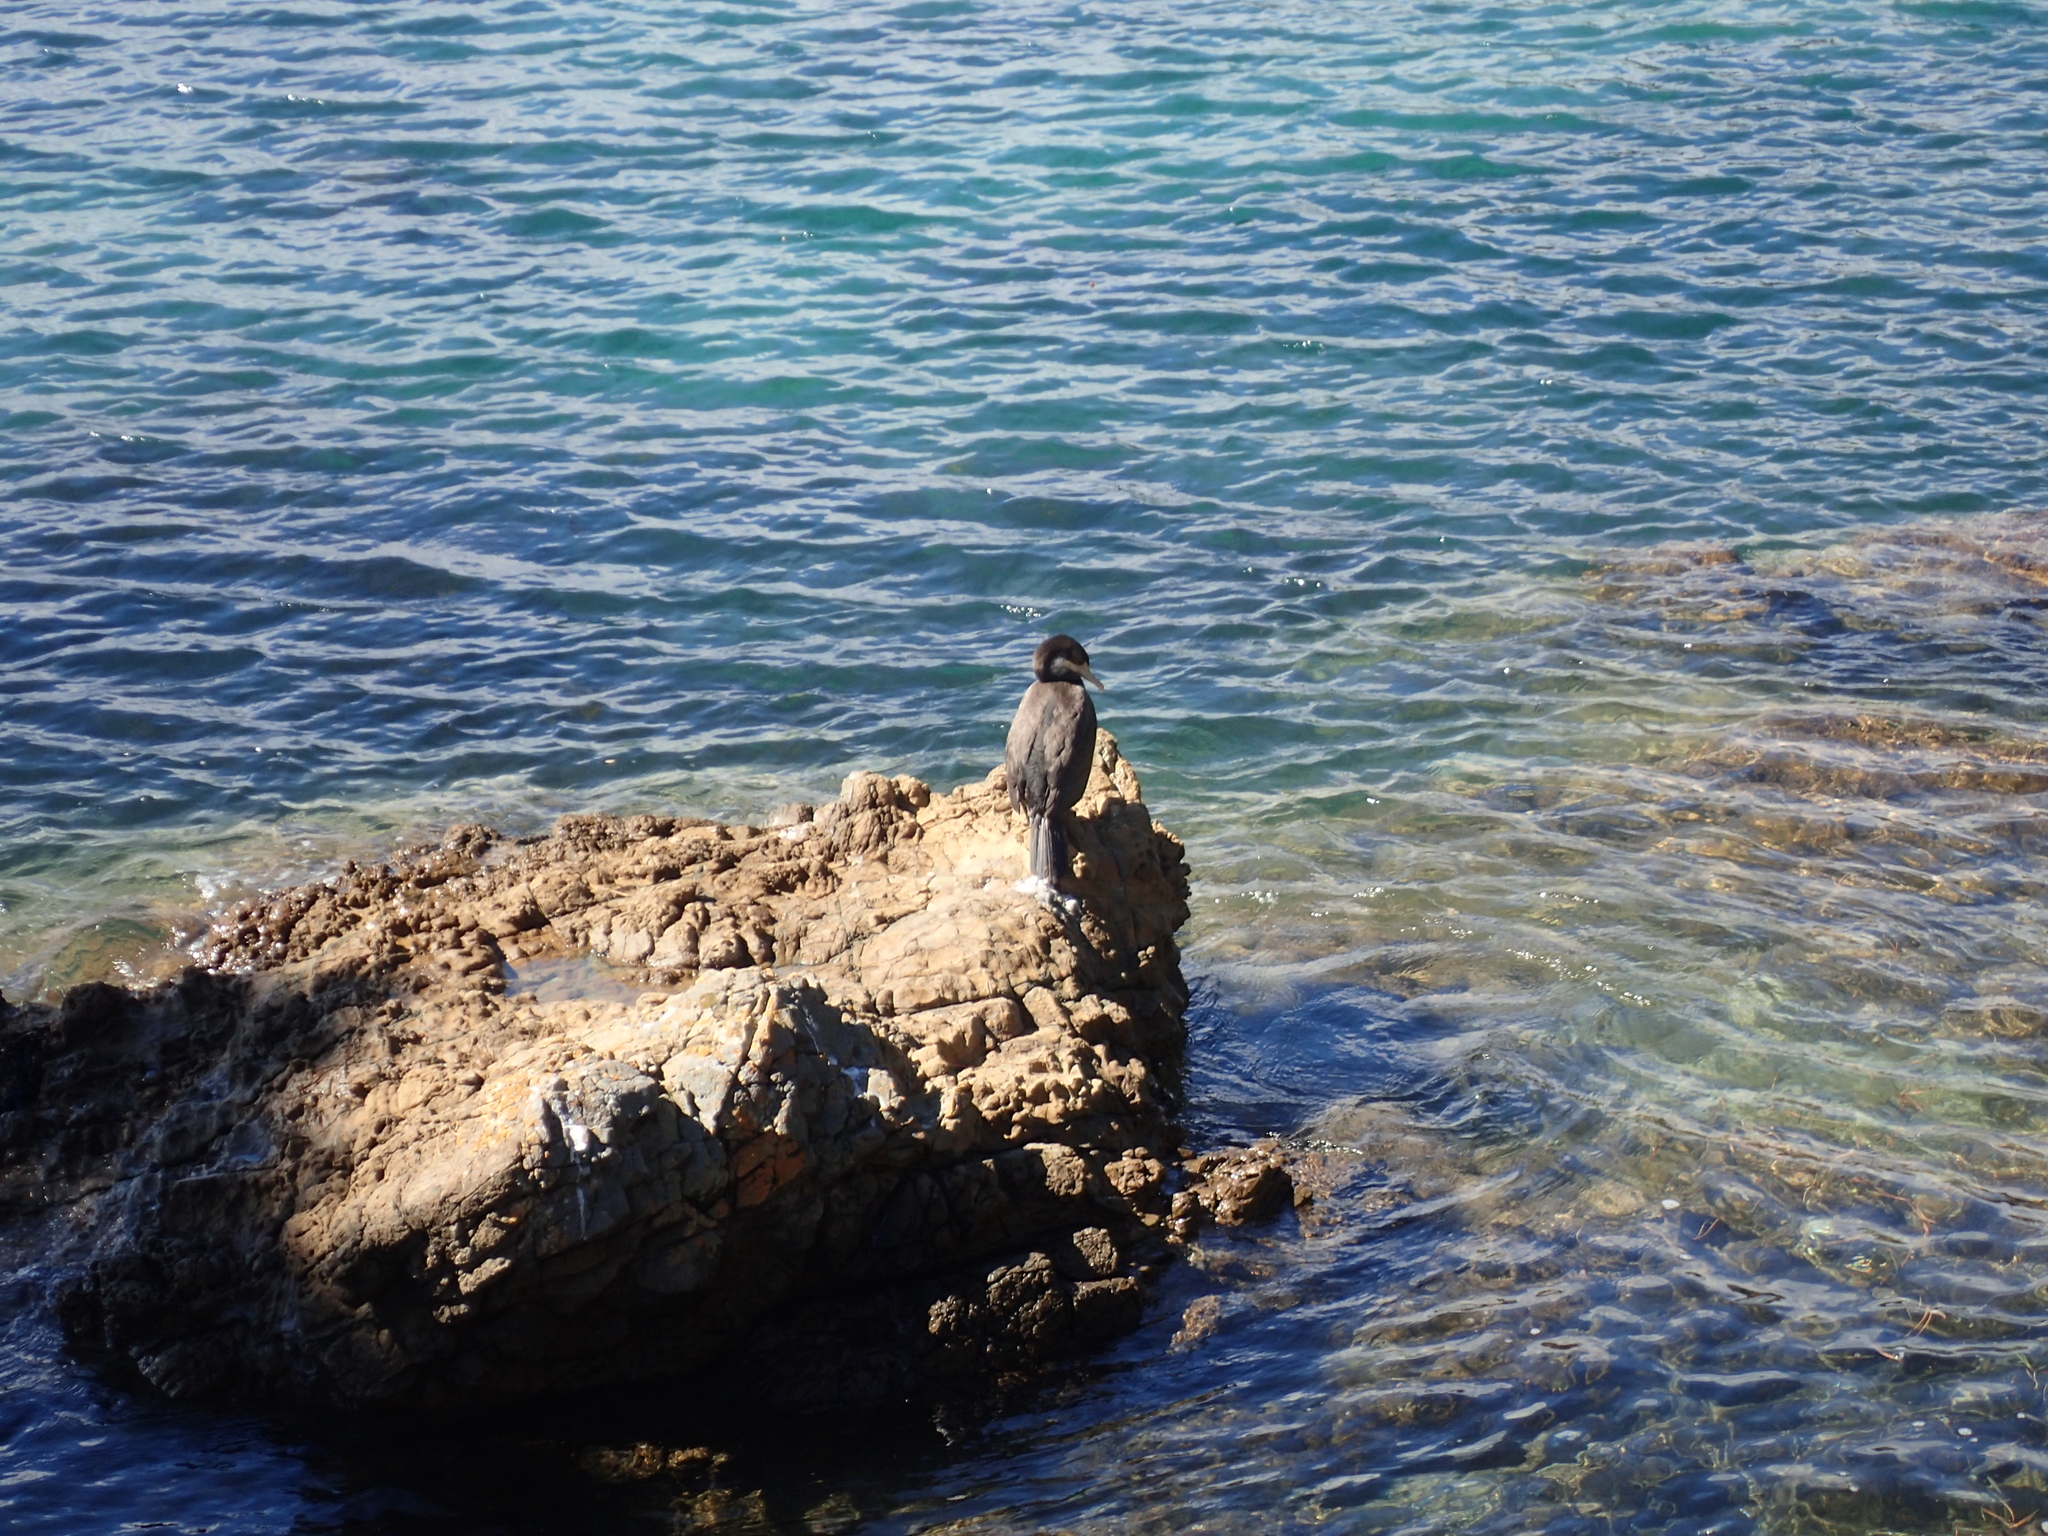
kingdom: Animalia
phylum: Chordata
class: Aves
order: Suliformes
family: Phalacrocoracidae
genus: Phalacrocorax
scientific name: Phalacrocorax varius
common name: Pied cormorant
